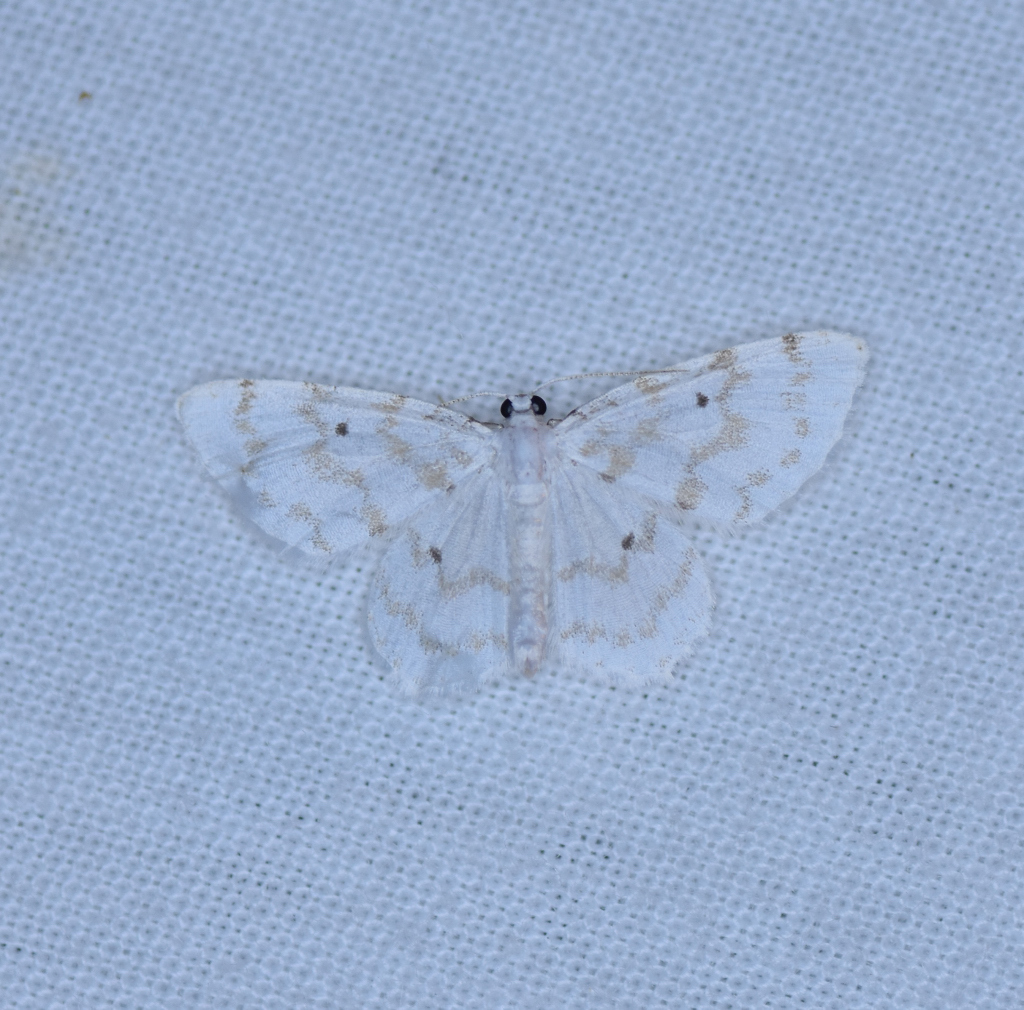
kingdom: Animalia
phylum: Arthropoda
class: Insecta
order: Lepidoptera
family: Geometridae
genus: Hydrelia
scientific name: Hydrelia albifera
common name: Fragile white carpet
